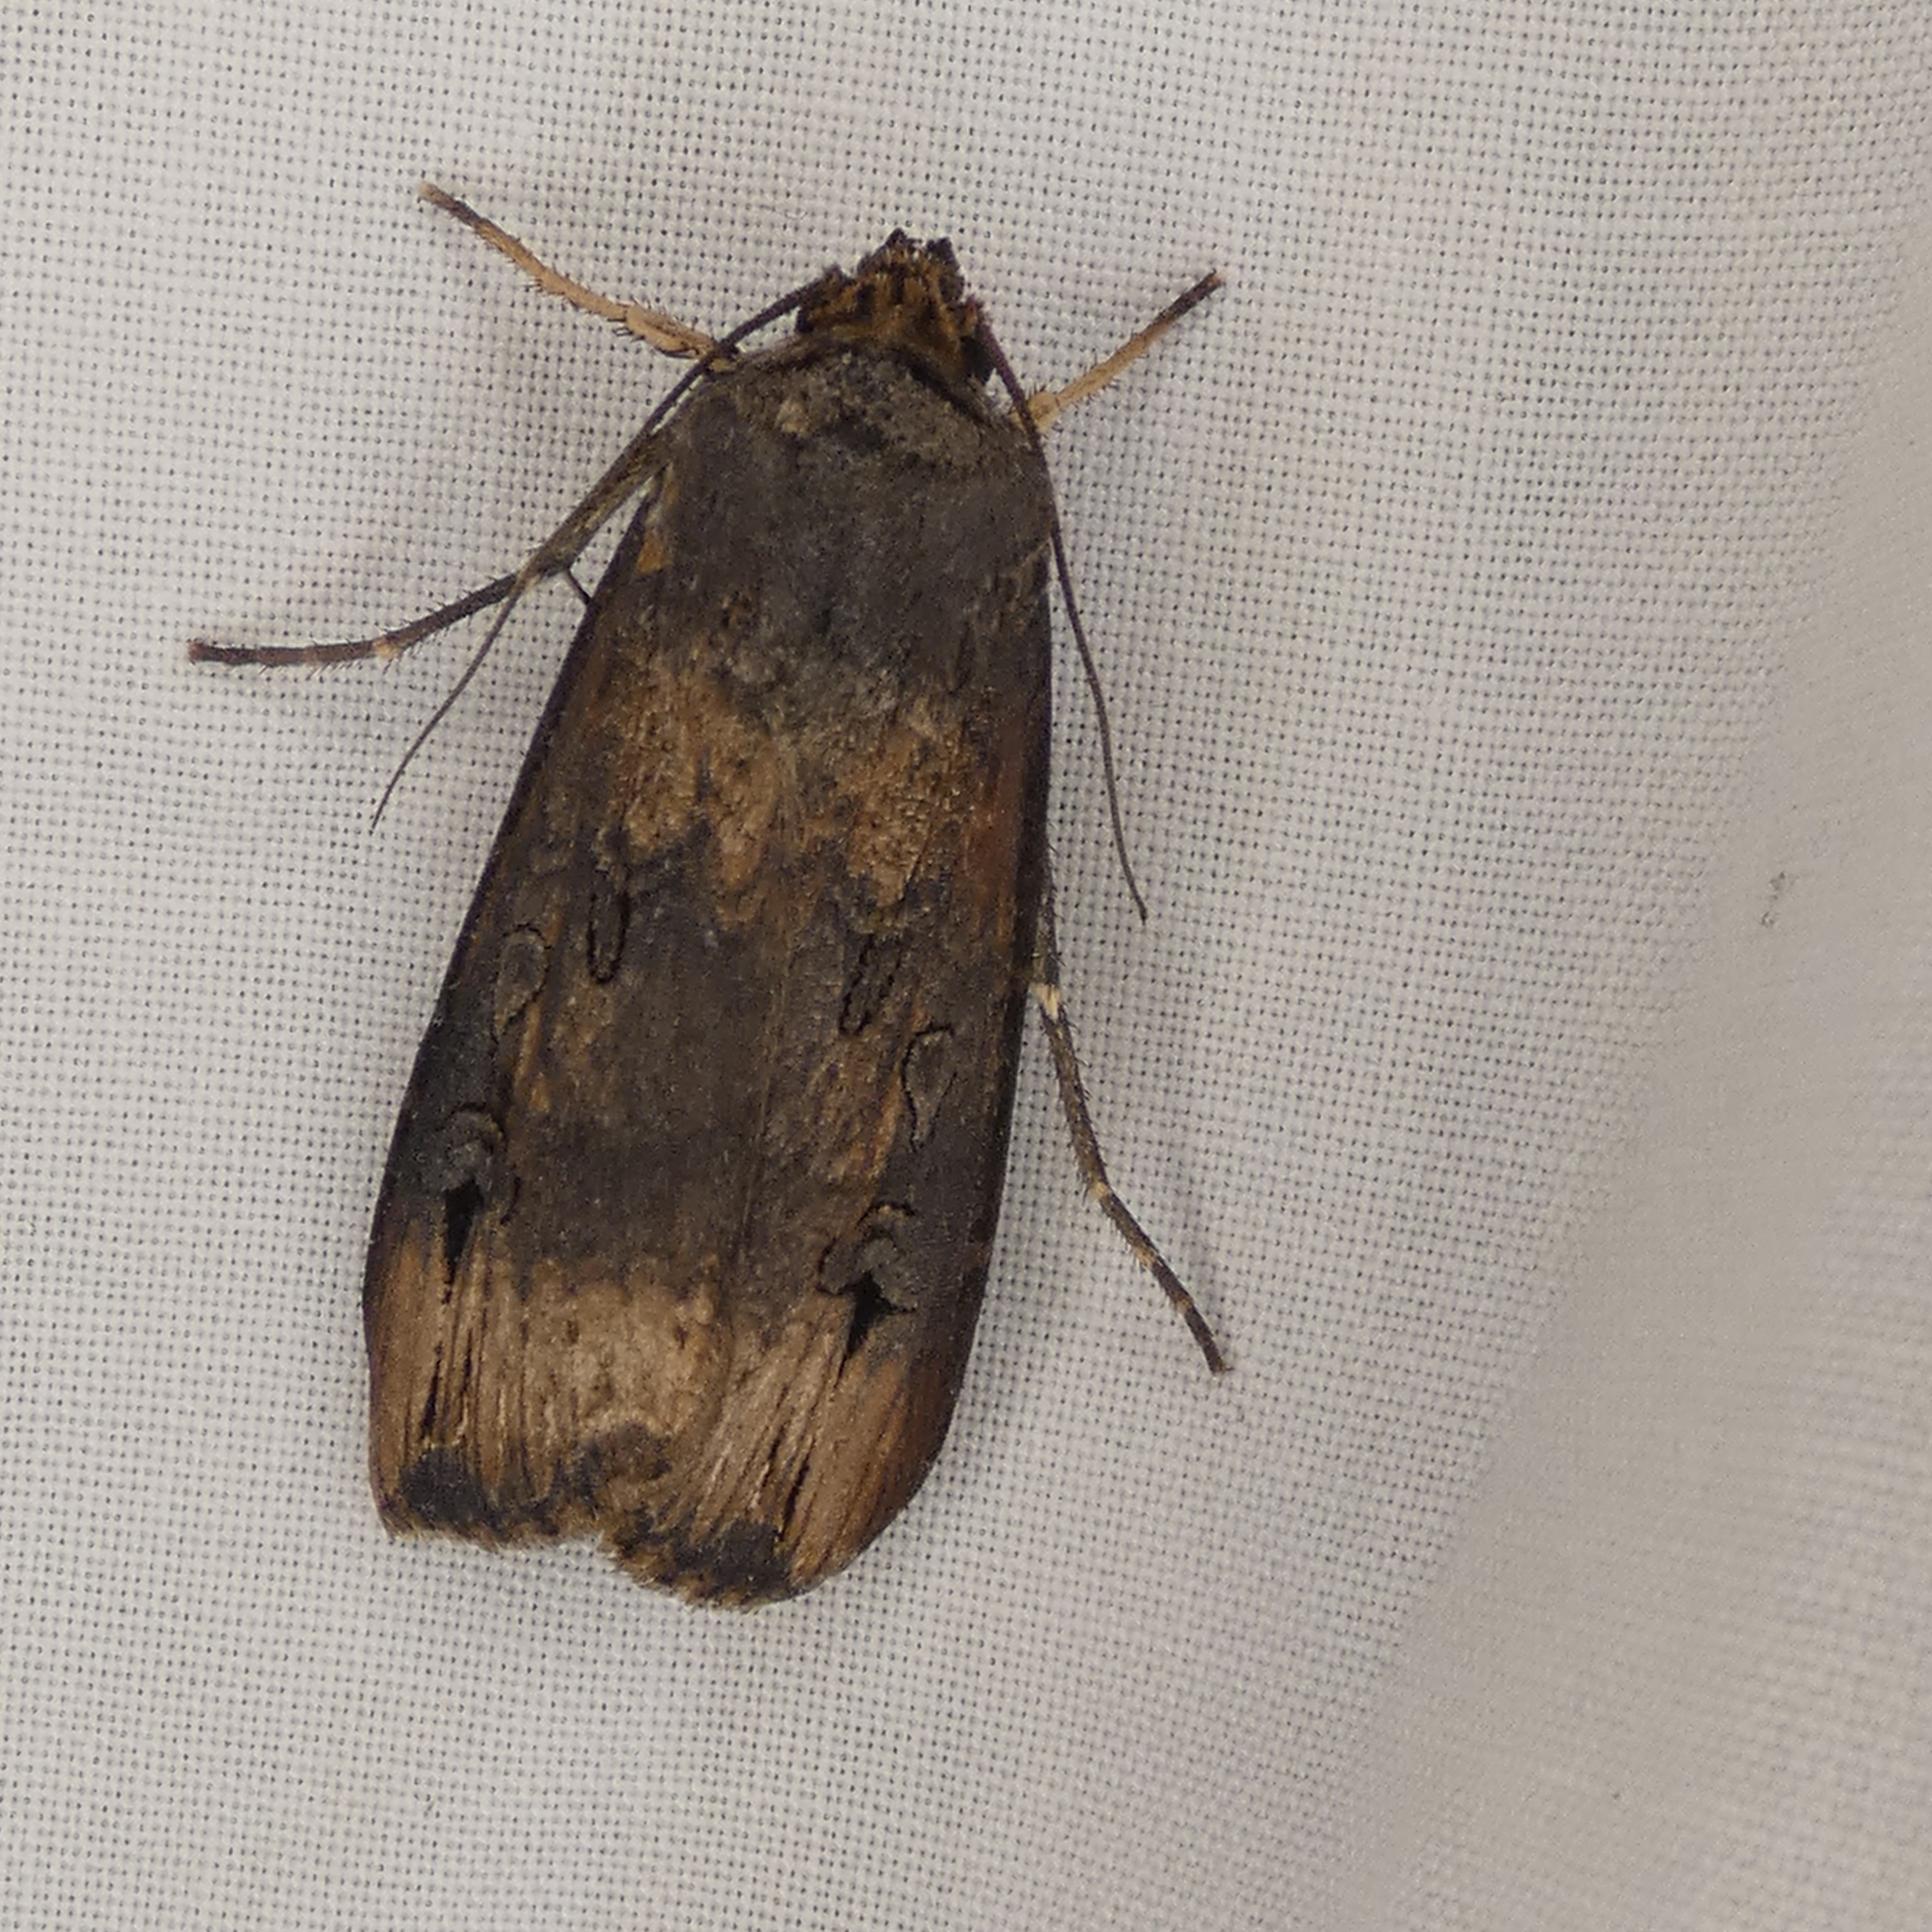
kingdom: Animalia
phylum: Arthropoda
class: Insecta
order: Lepidoptera
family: Noctuidae
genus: Agrotis
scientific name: Agrotis ipsilon
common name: Dark sword-grass
